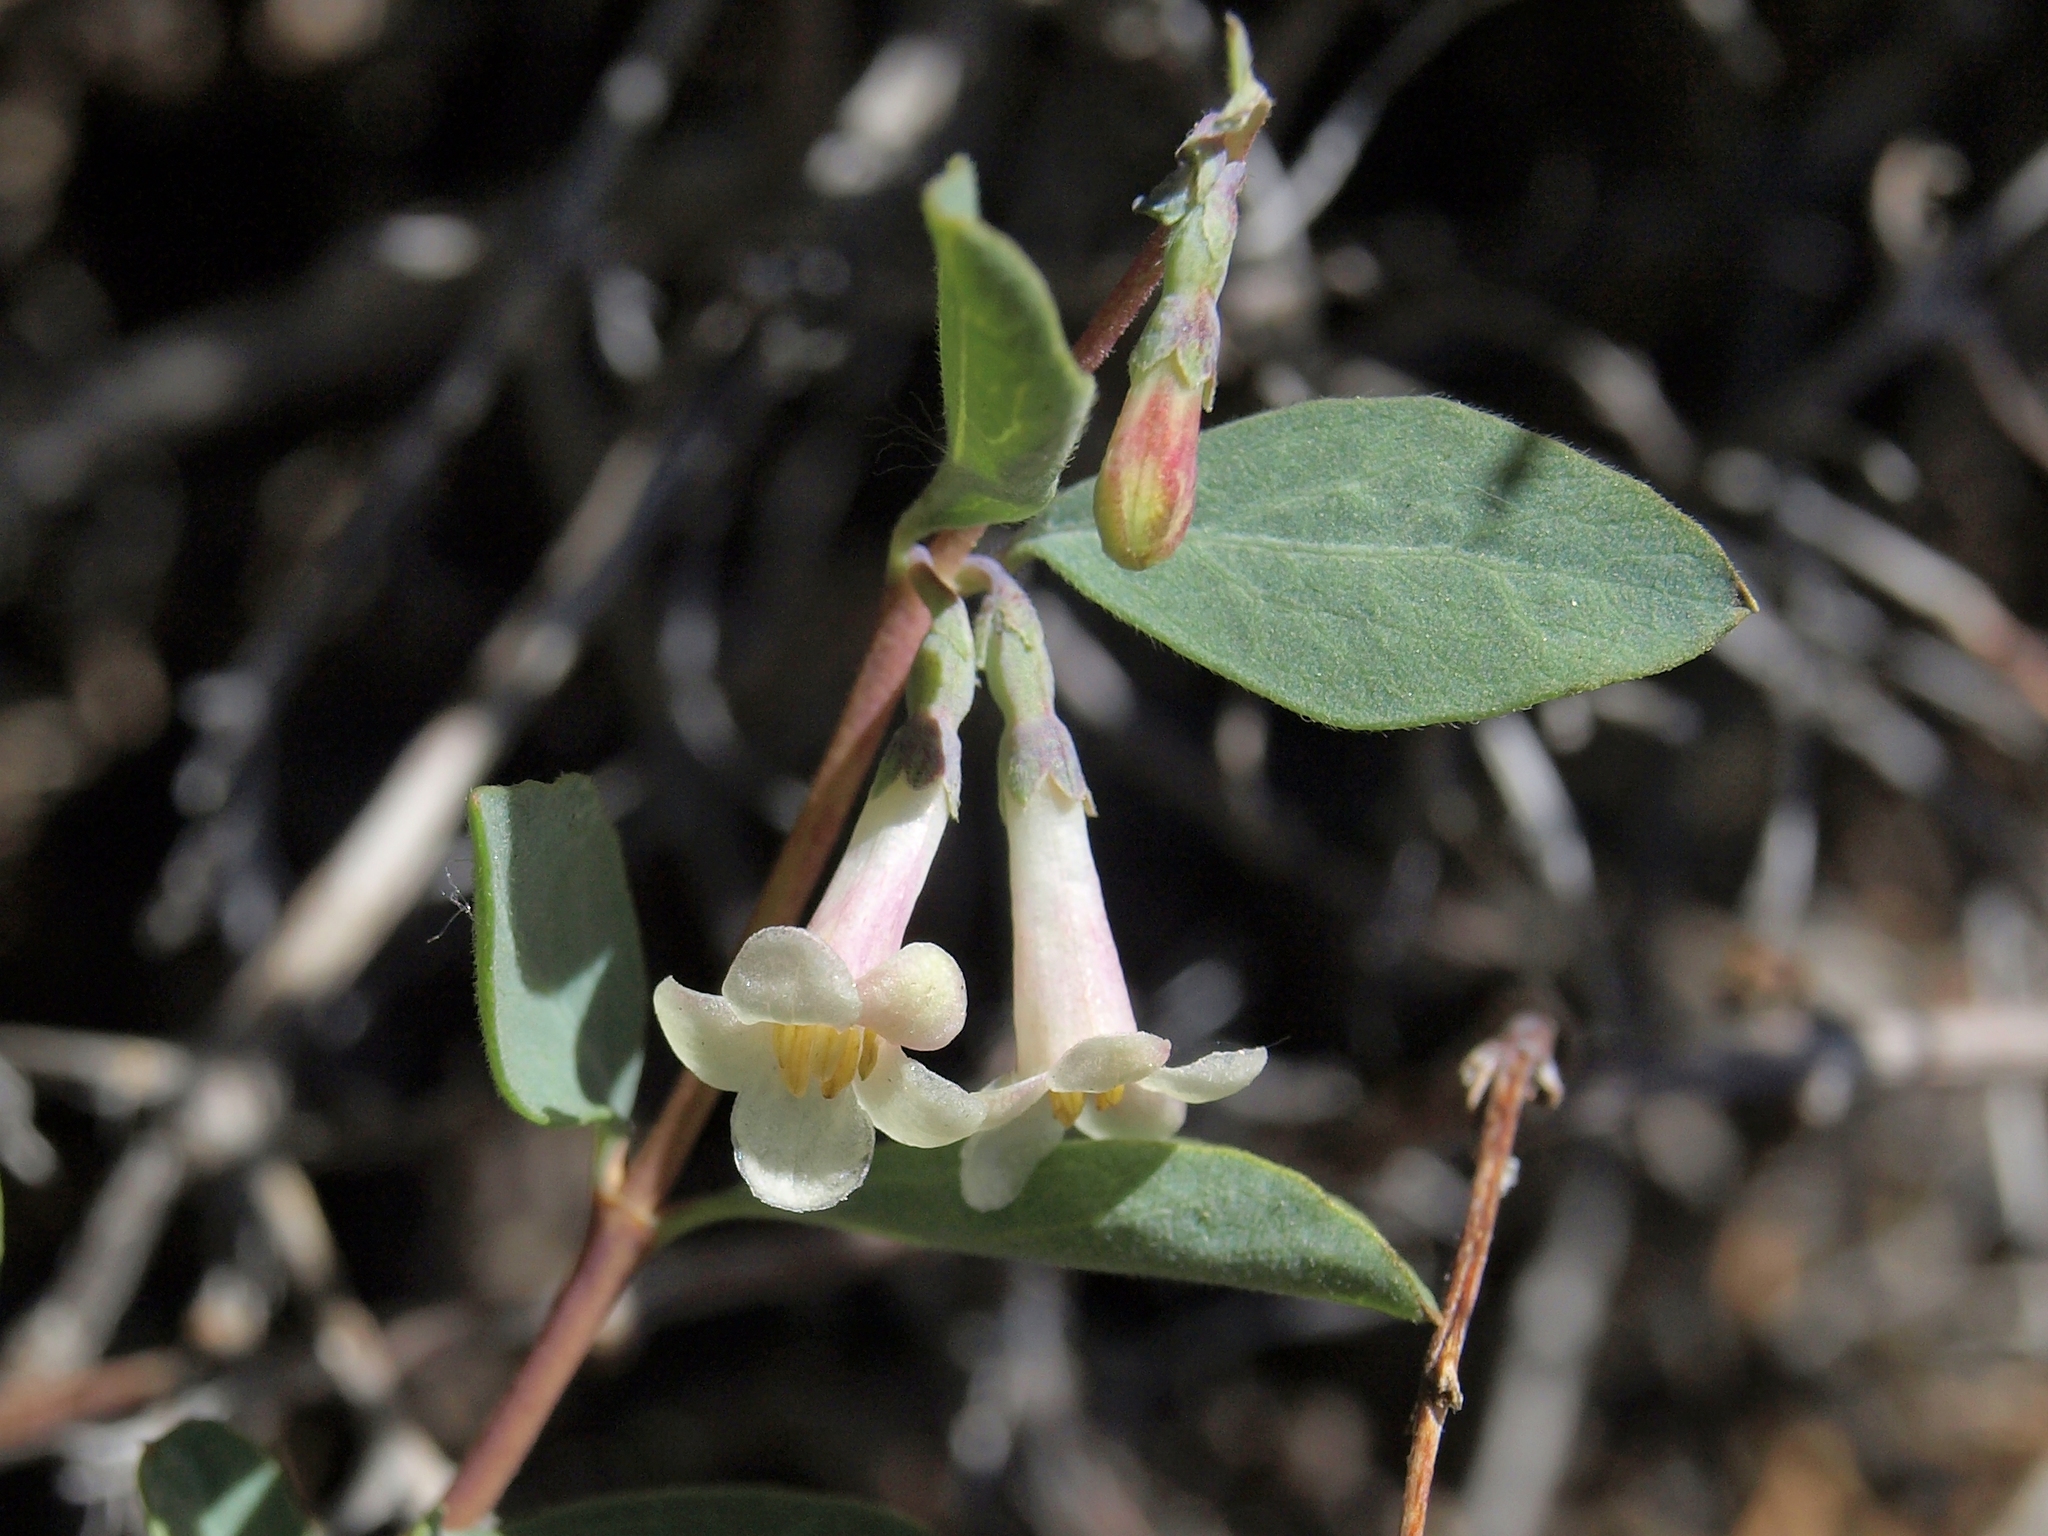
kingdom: Plantae
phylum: Tracheophyta
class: Magnoliopsida
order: Dipsacales
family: Caprifoliaceae
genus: Symphoricarpos
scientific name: Symphoricarpos longiflorus
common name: Fragrant snowberry
